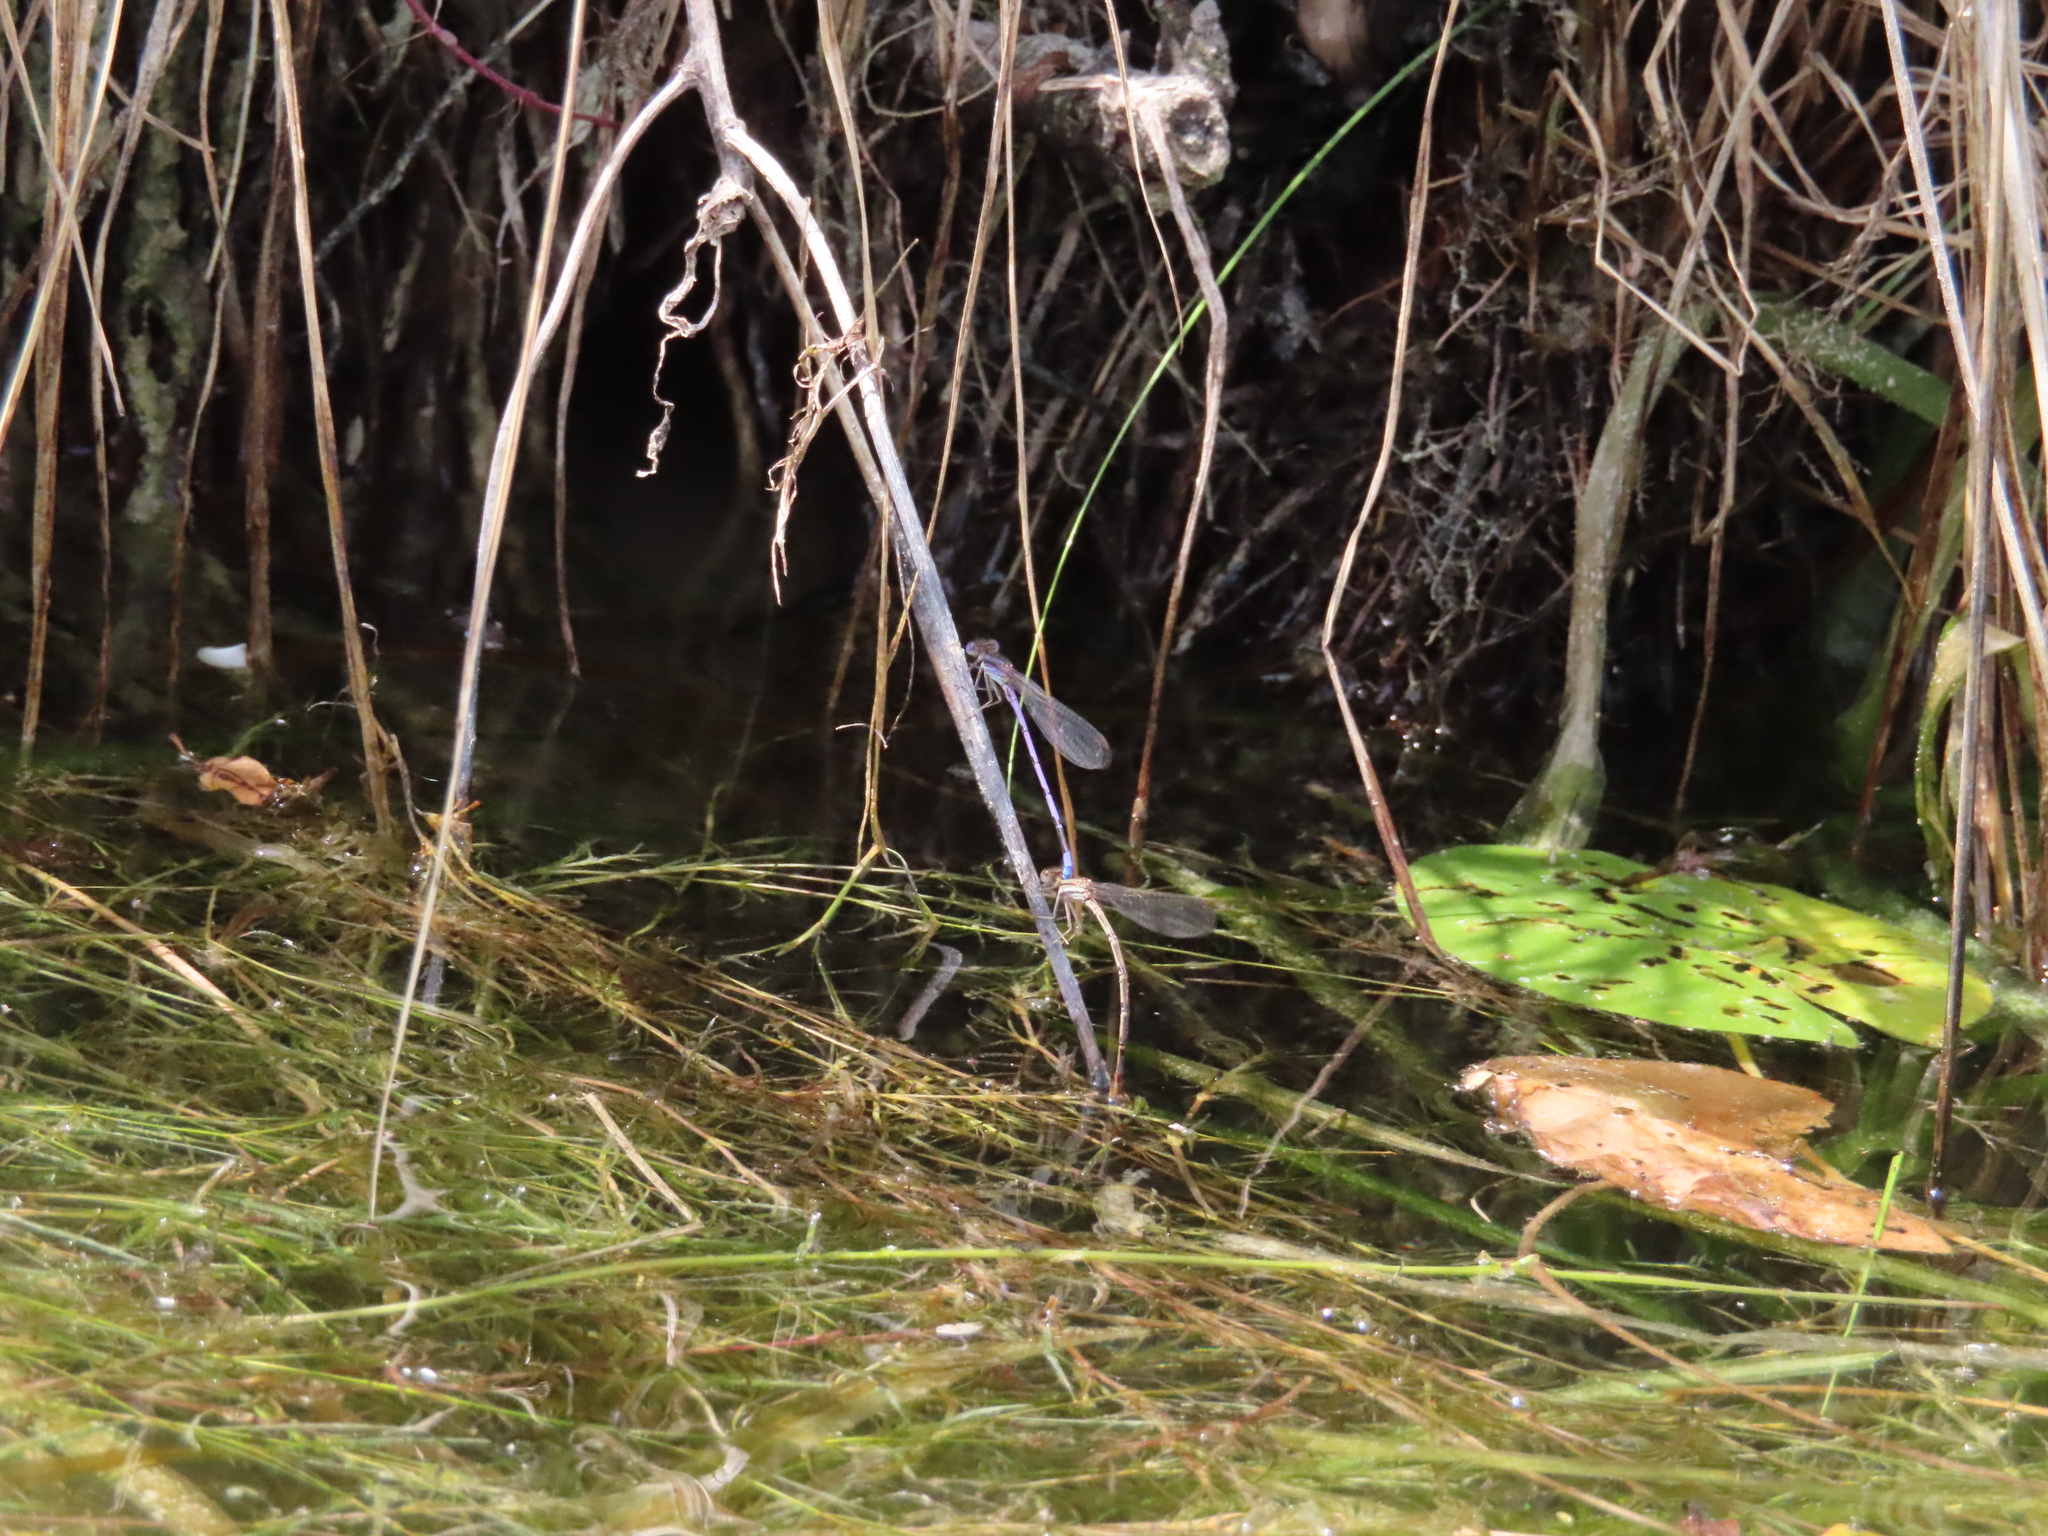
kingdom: Animalia
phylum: Arthropoda
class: Insecta
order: Odonata
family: Coenagrionidae
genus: Argia
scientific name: Argia fumipennis
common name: Variable dancer
